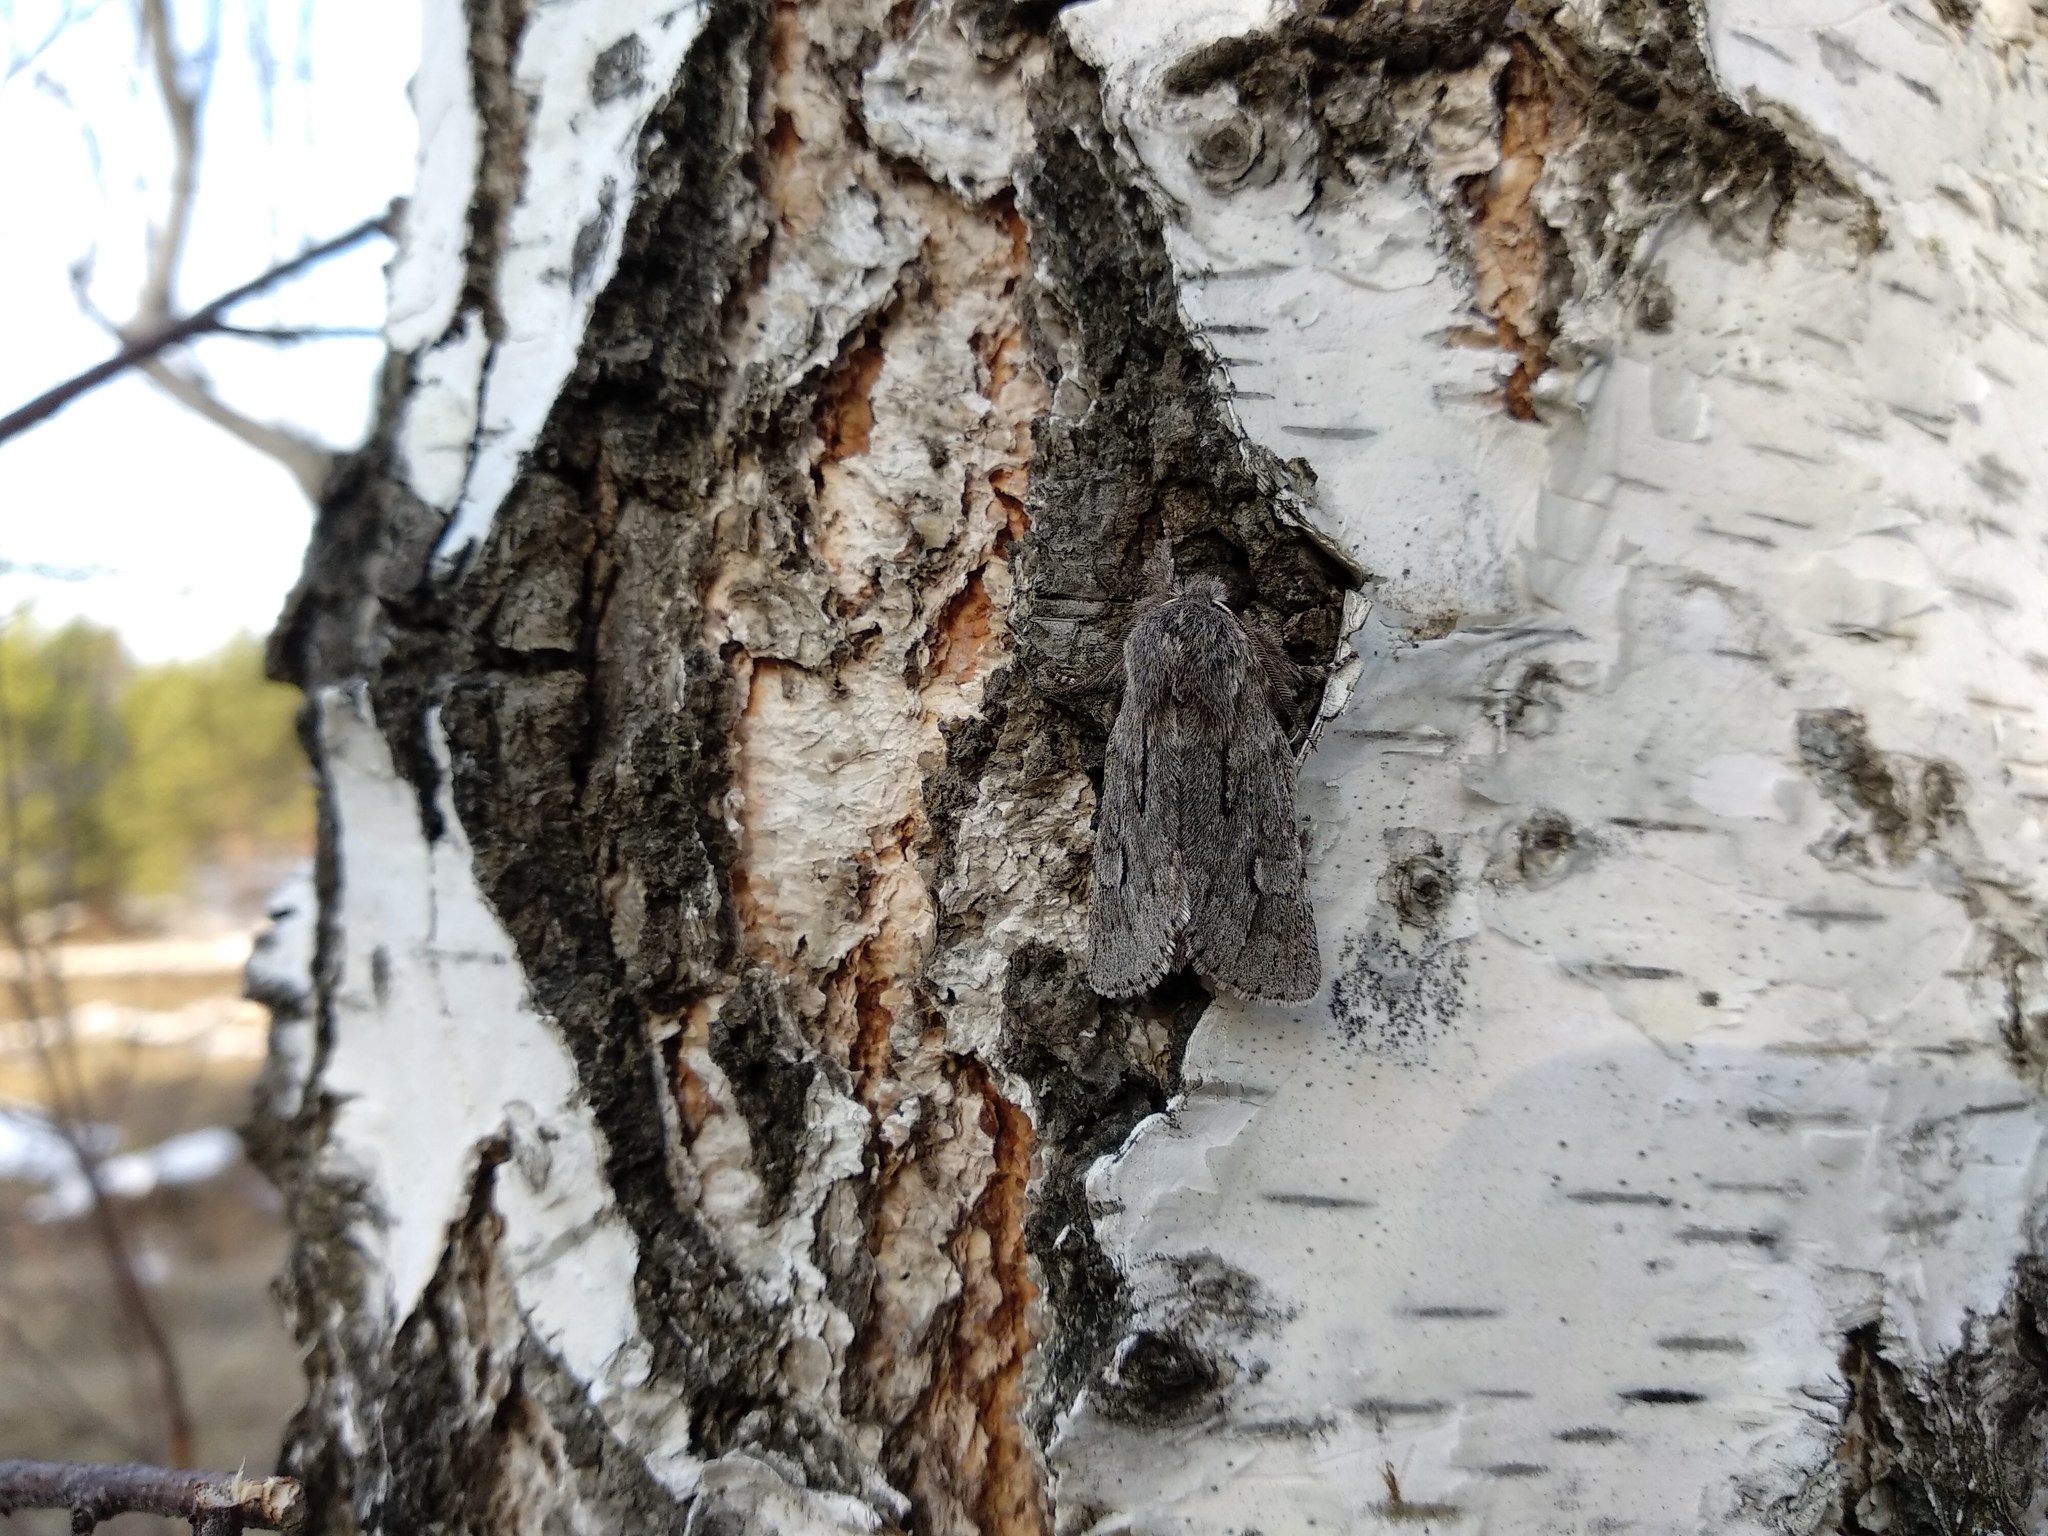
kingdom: Animalia
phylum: Arthropoda
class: Insecta
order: Lepidoptera
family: Noctuidae
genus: Brachionycha
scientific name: Brachionycha sajana
